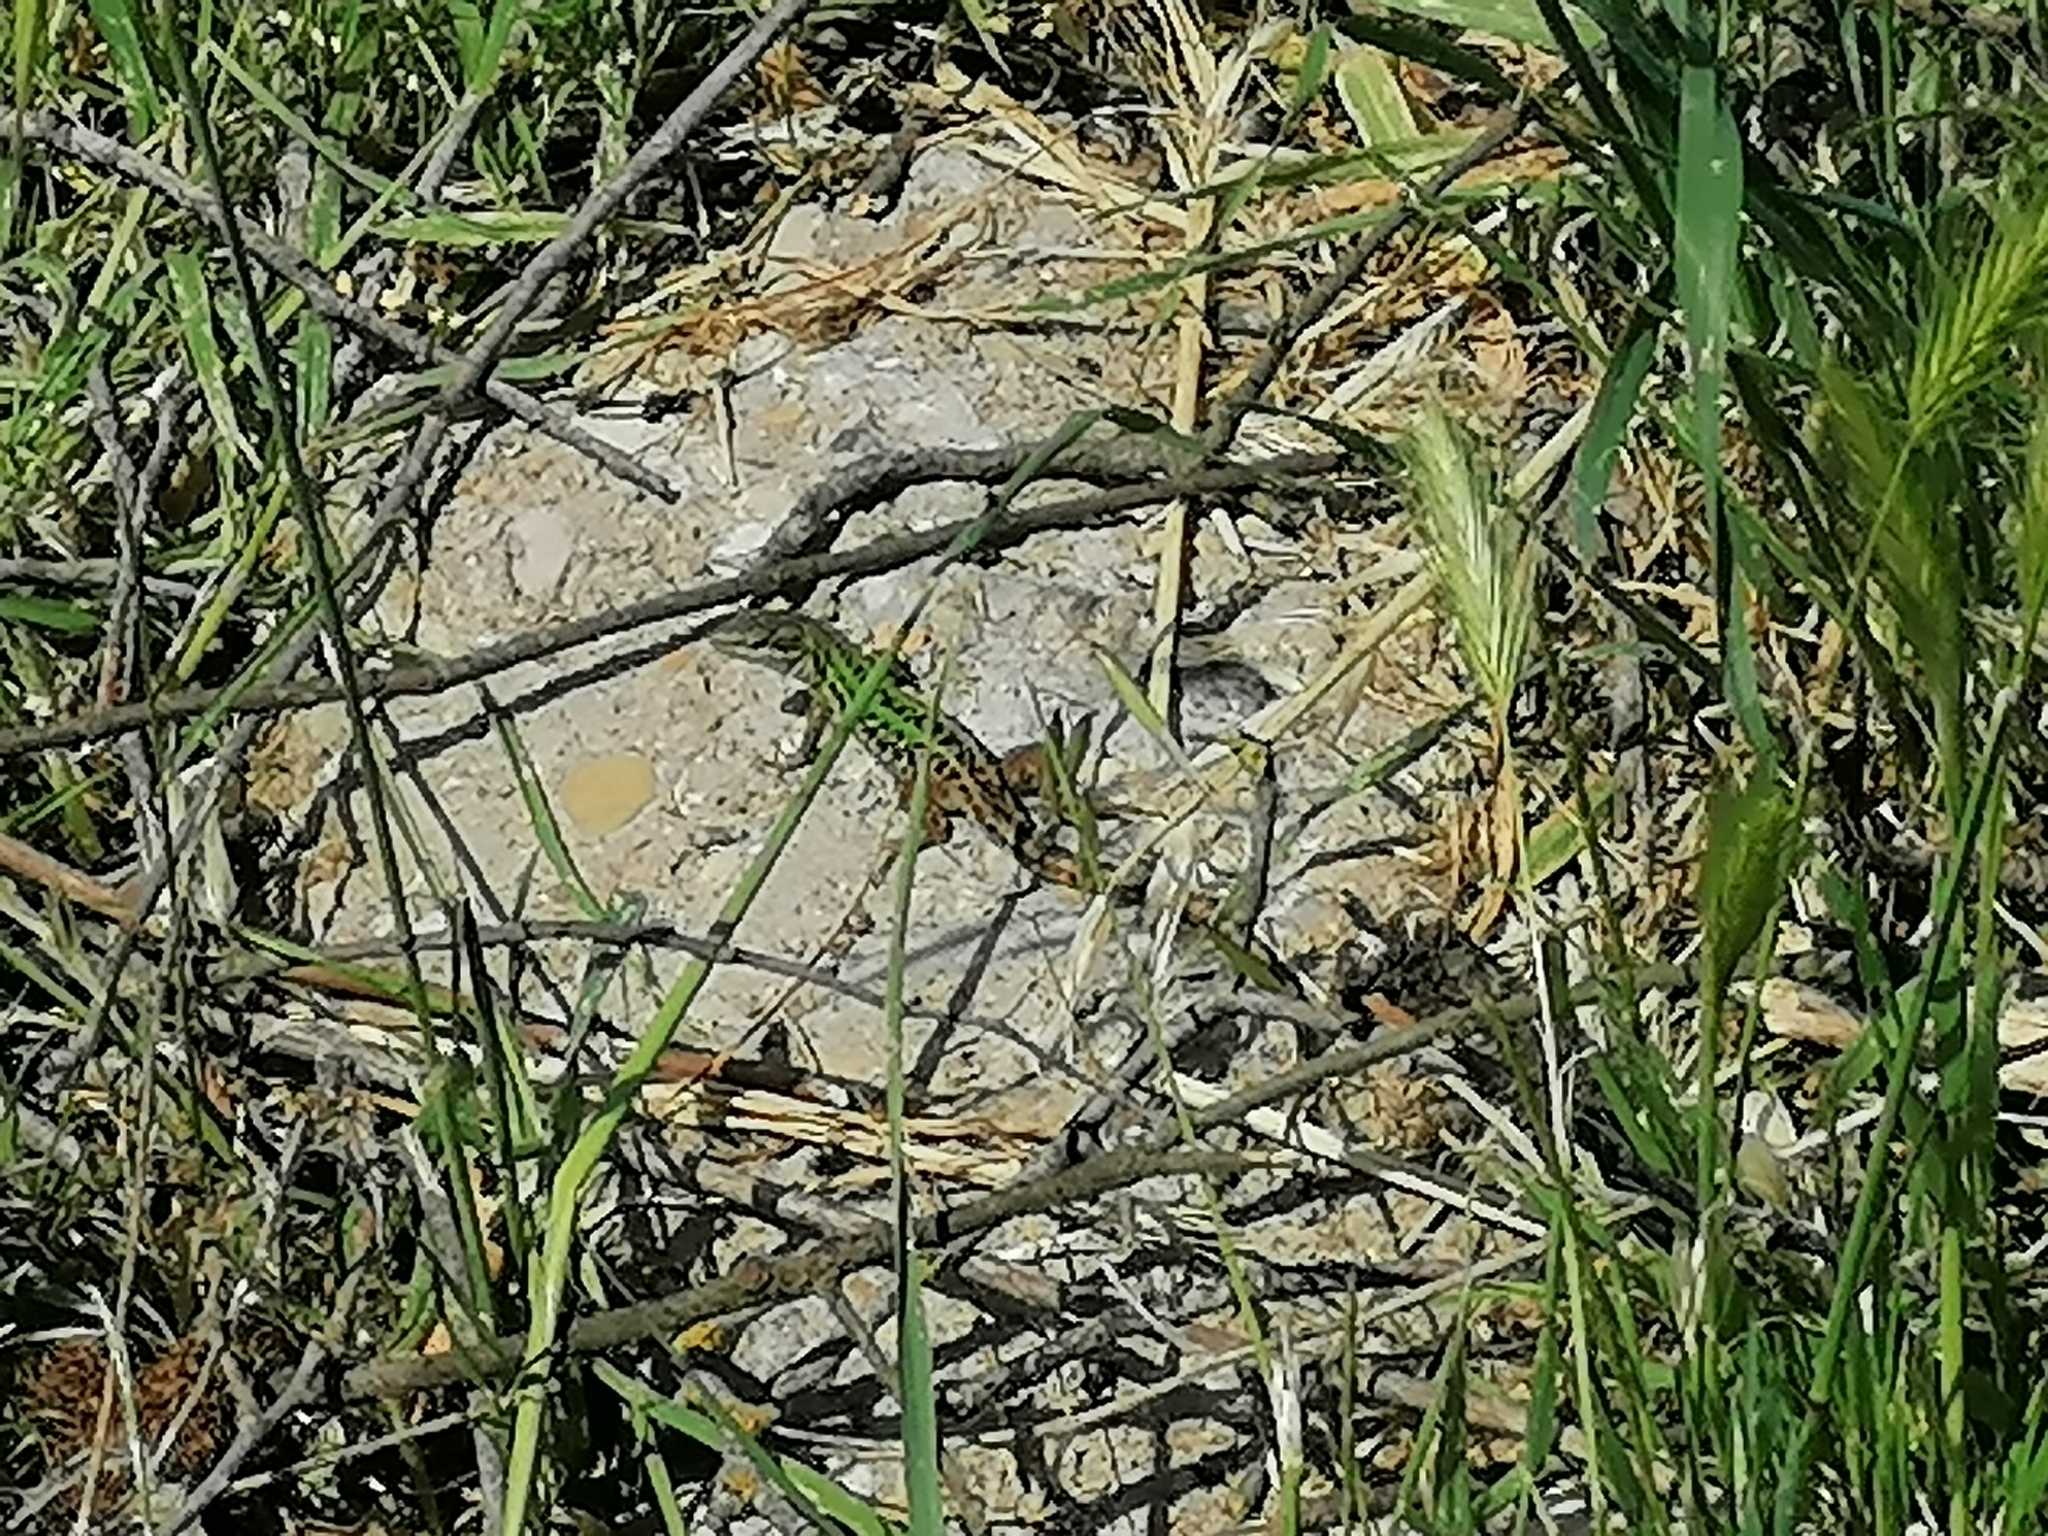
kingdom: Animalia
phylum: Chordata
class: Squamata
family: Lacertidae
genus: Podarcis
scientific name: Podarcis siculus
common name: Italian wall lizard
